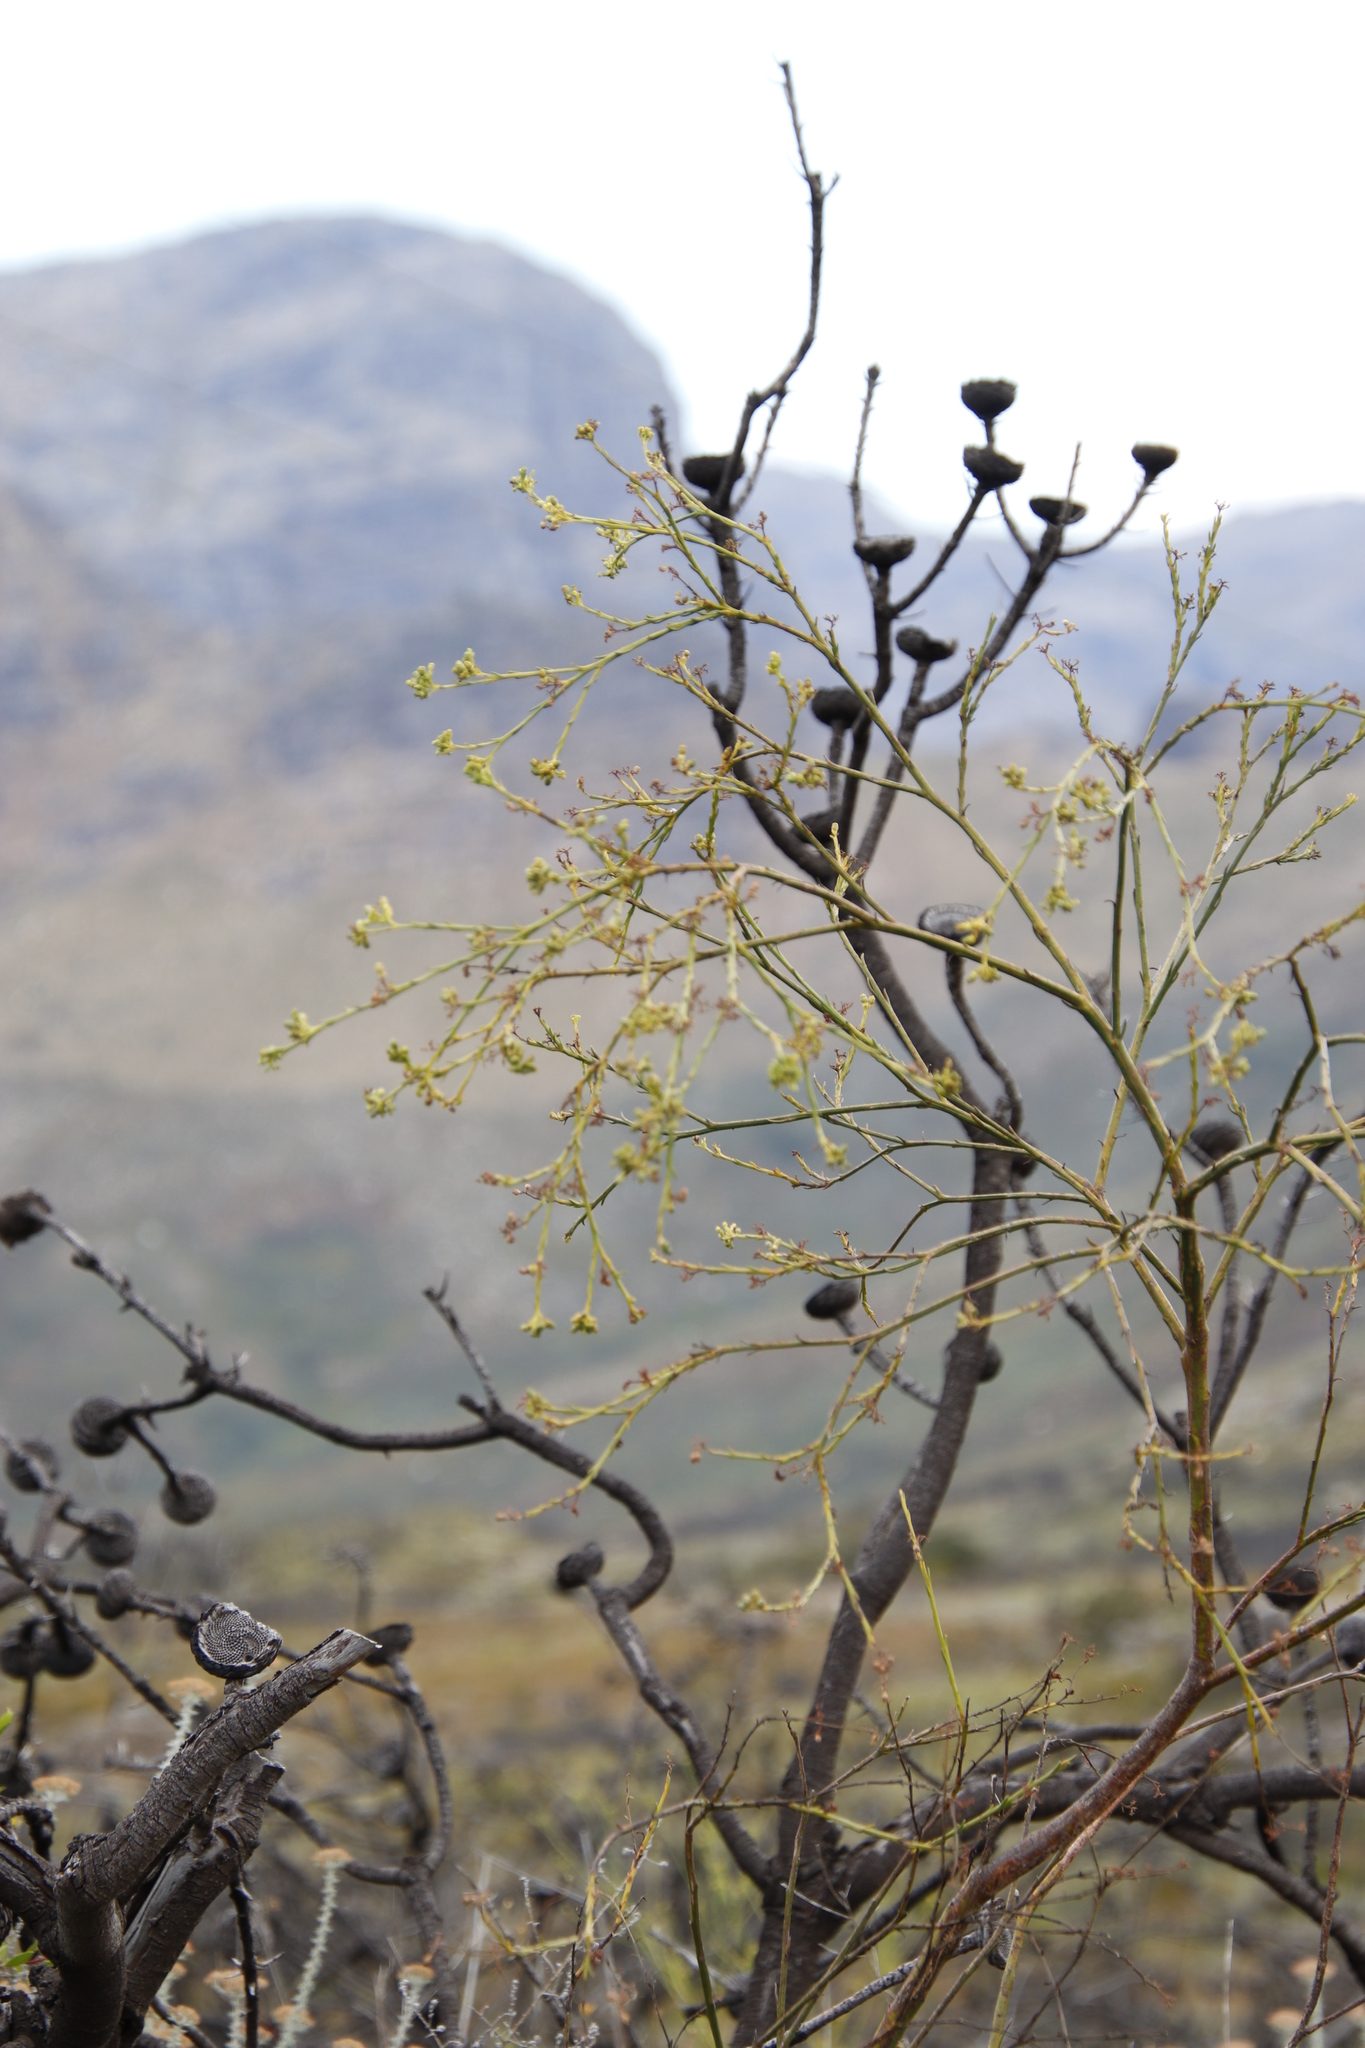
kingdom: Plantae
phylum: Tracheophyta
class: Magnoliopsida
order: Santalales
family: Thesiaceae
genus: Thesium
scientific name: Thesium strictum
